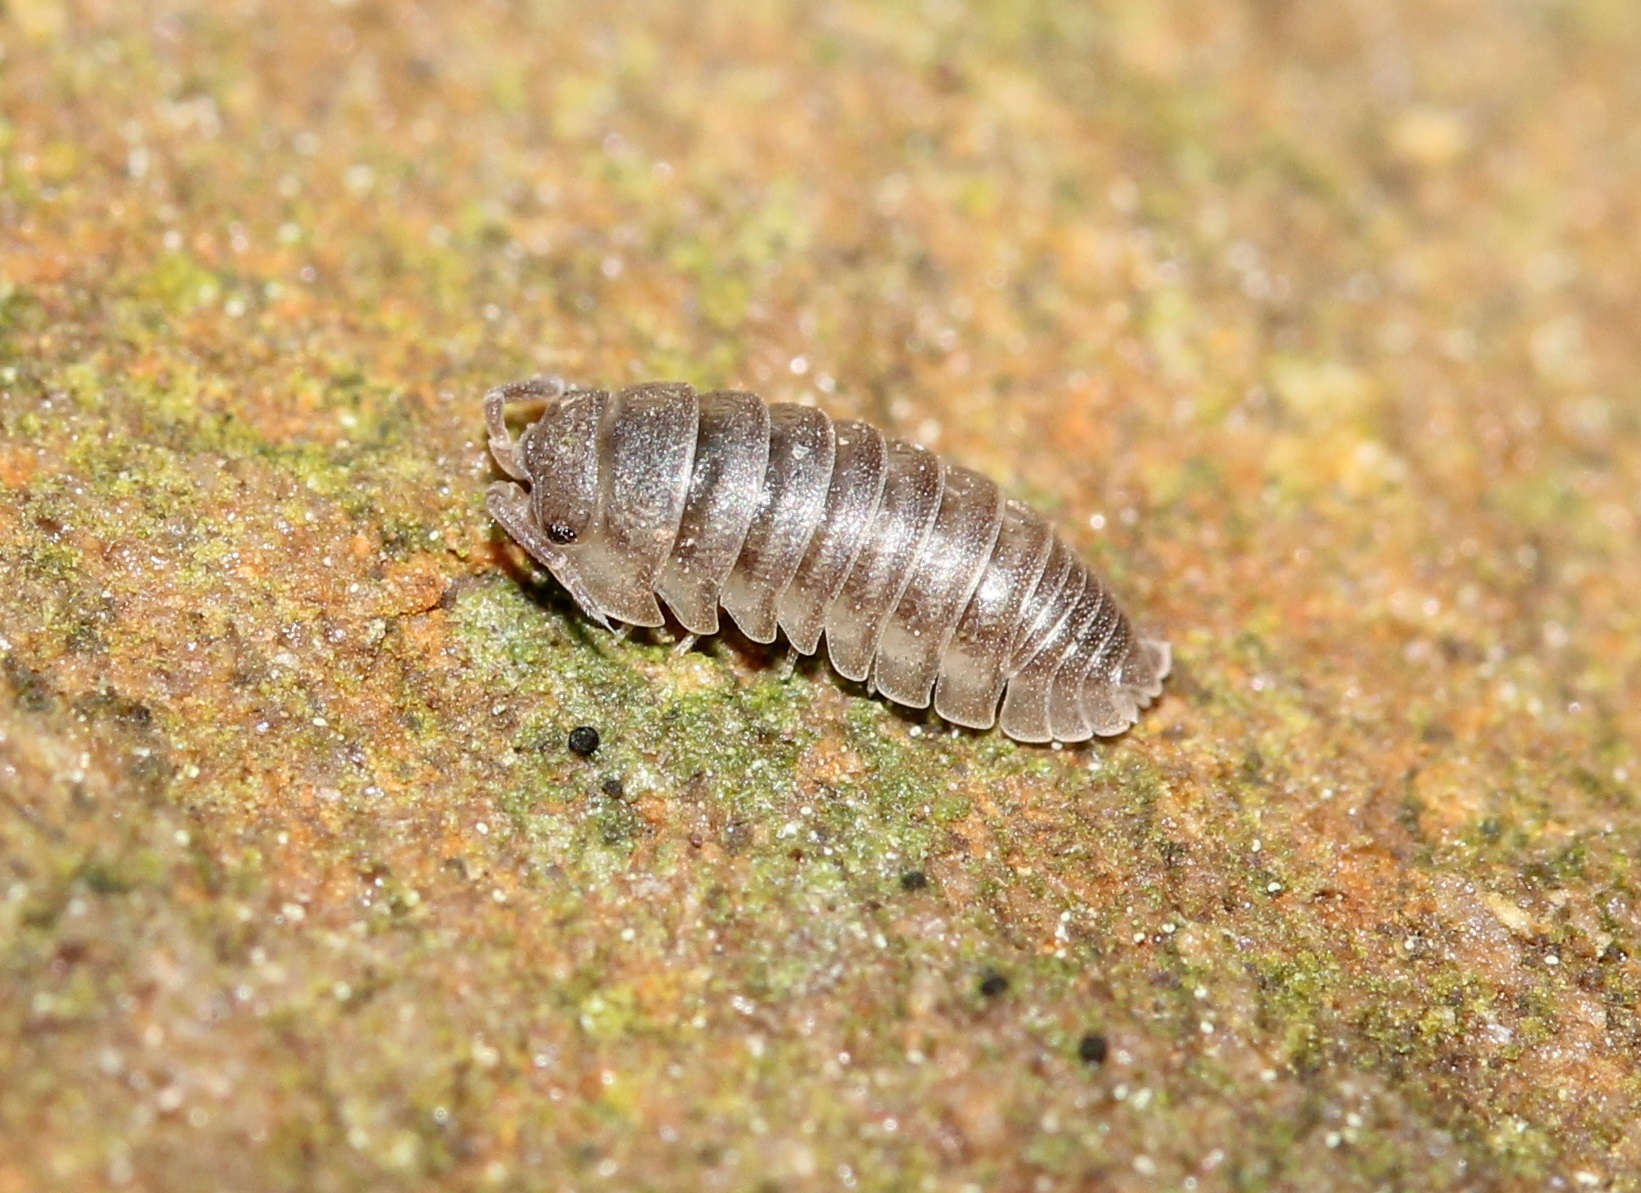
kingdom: Animalia
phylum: Arthropoda
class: Malacostraca
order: Isopoda
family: Armadillidiidae
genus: Armadillidium
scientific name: Armadillidium nasatum
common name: Isopod
